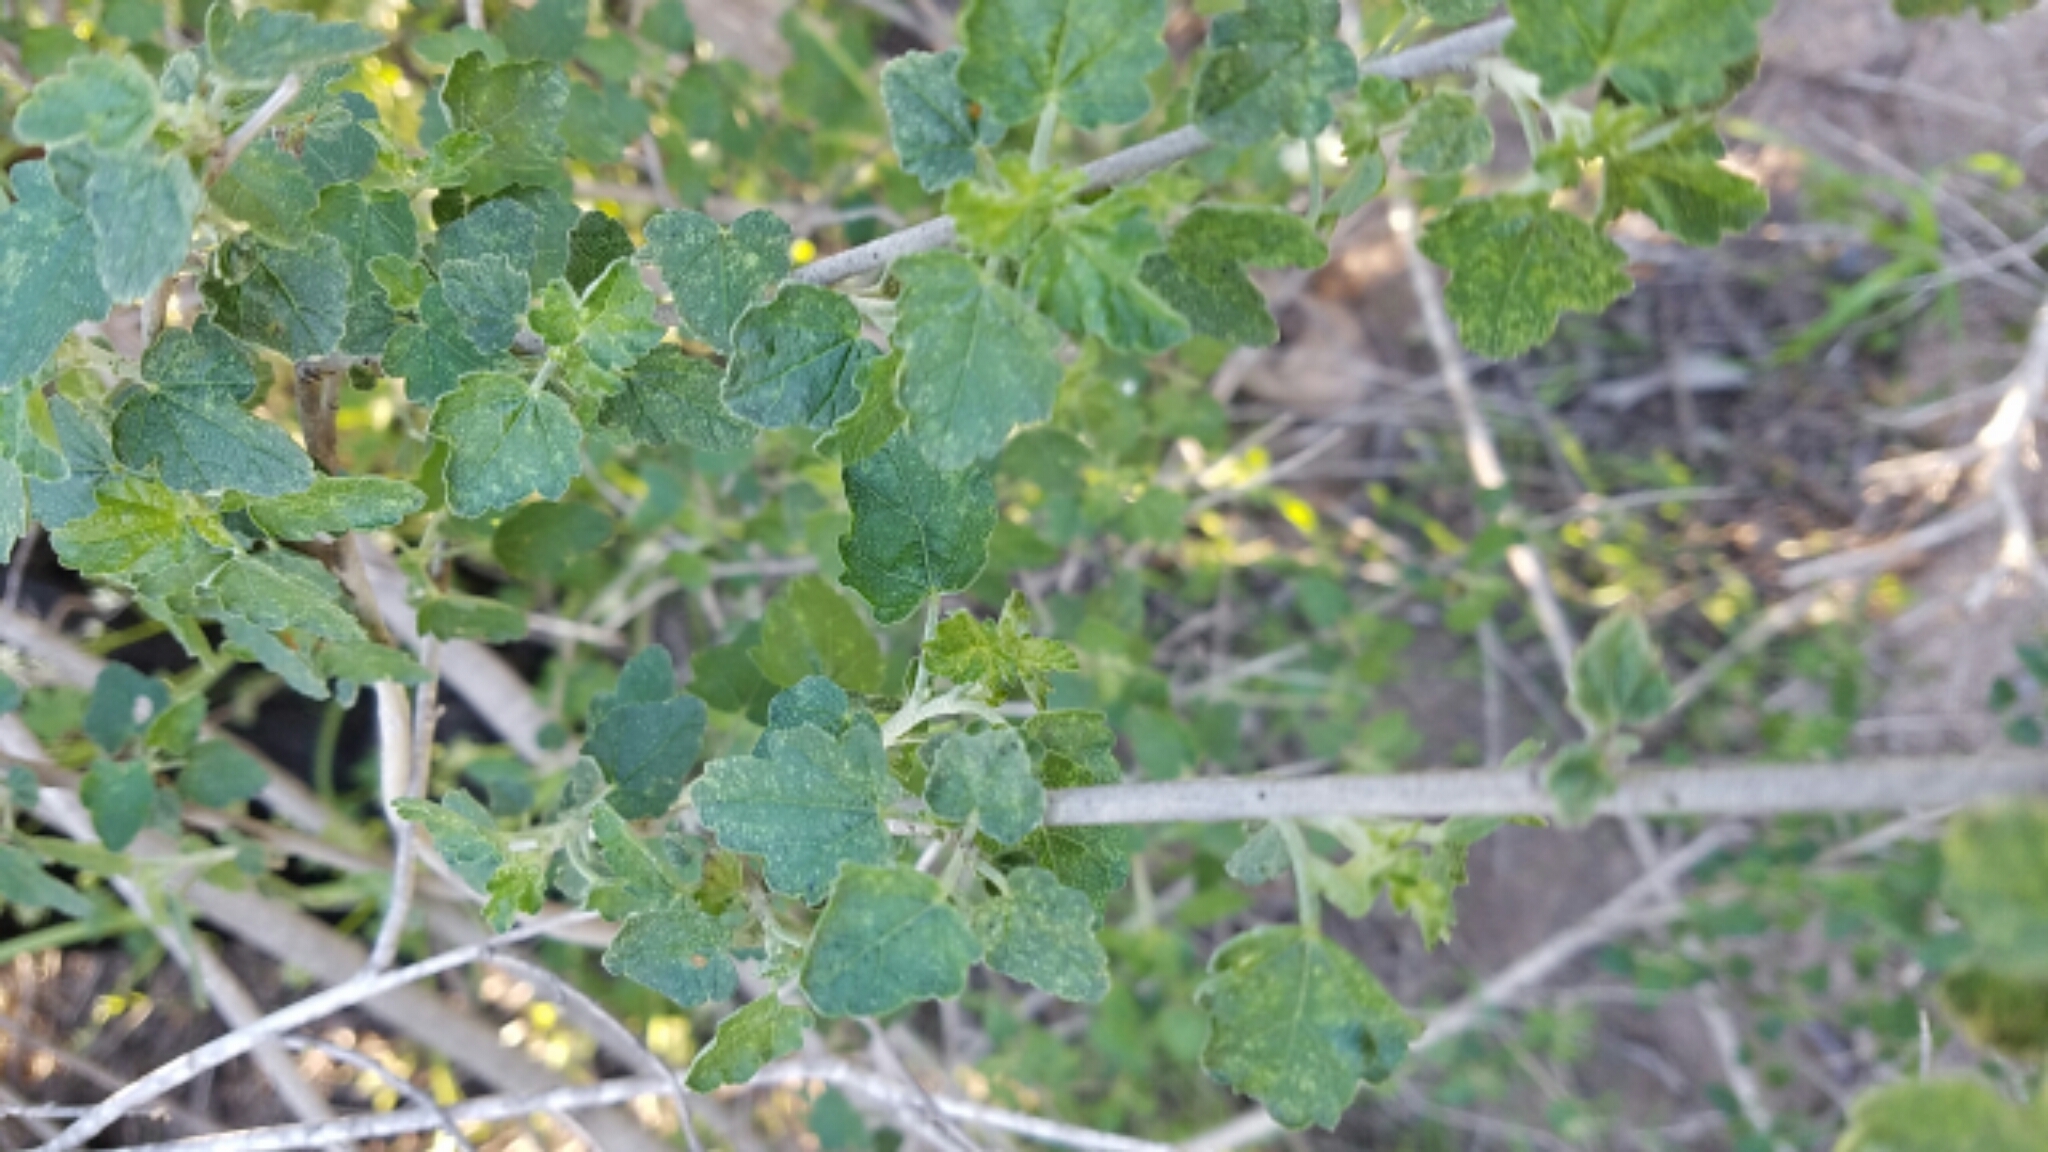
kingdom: Plantae
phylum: Tracheophyta
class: Magnoliopsida
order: Malvales
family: Malvaceae
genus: Malacothamnus
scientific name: Malacothamnus fasciculatus
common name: Sant cruz island bush-mallow
